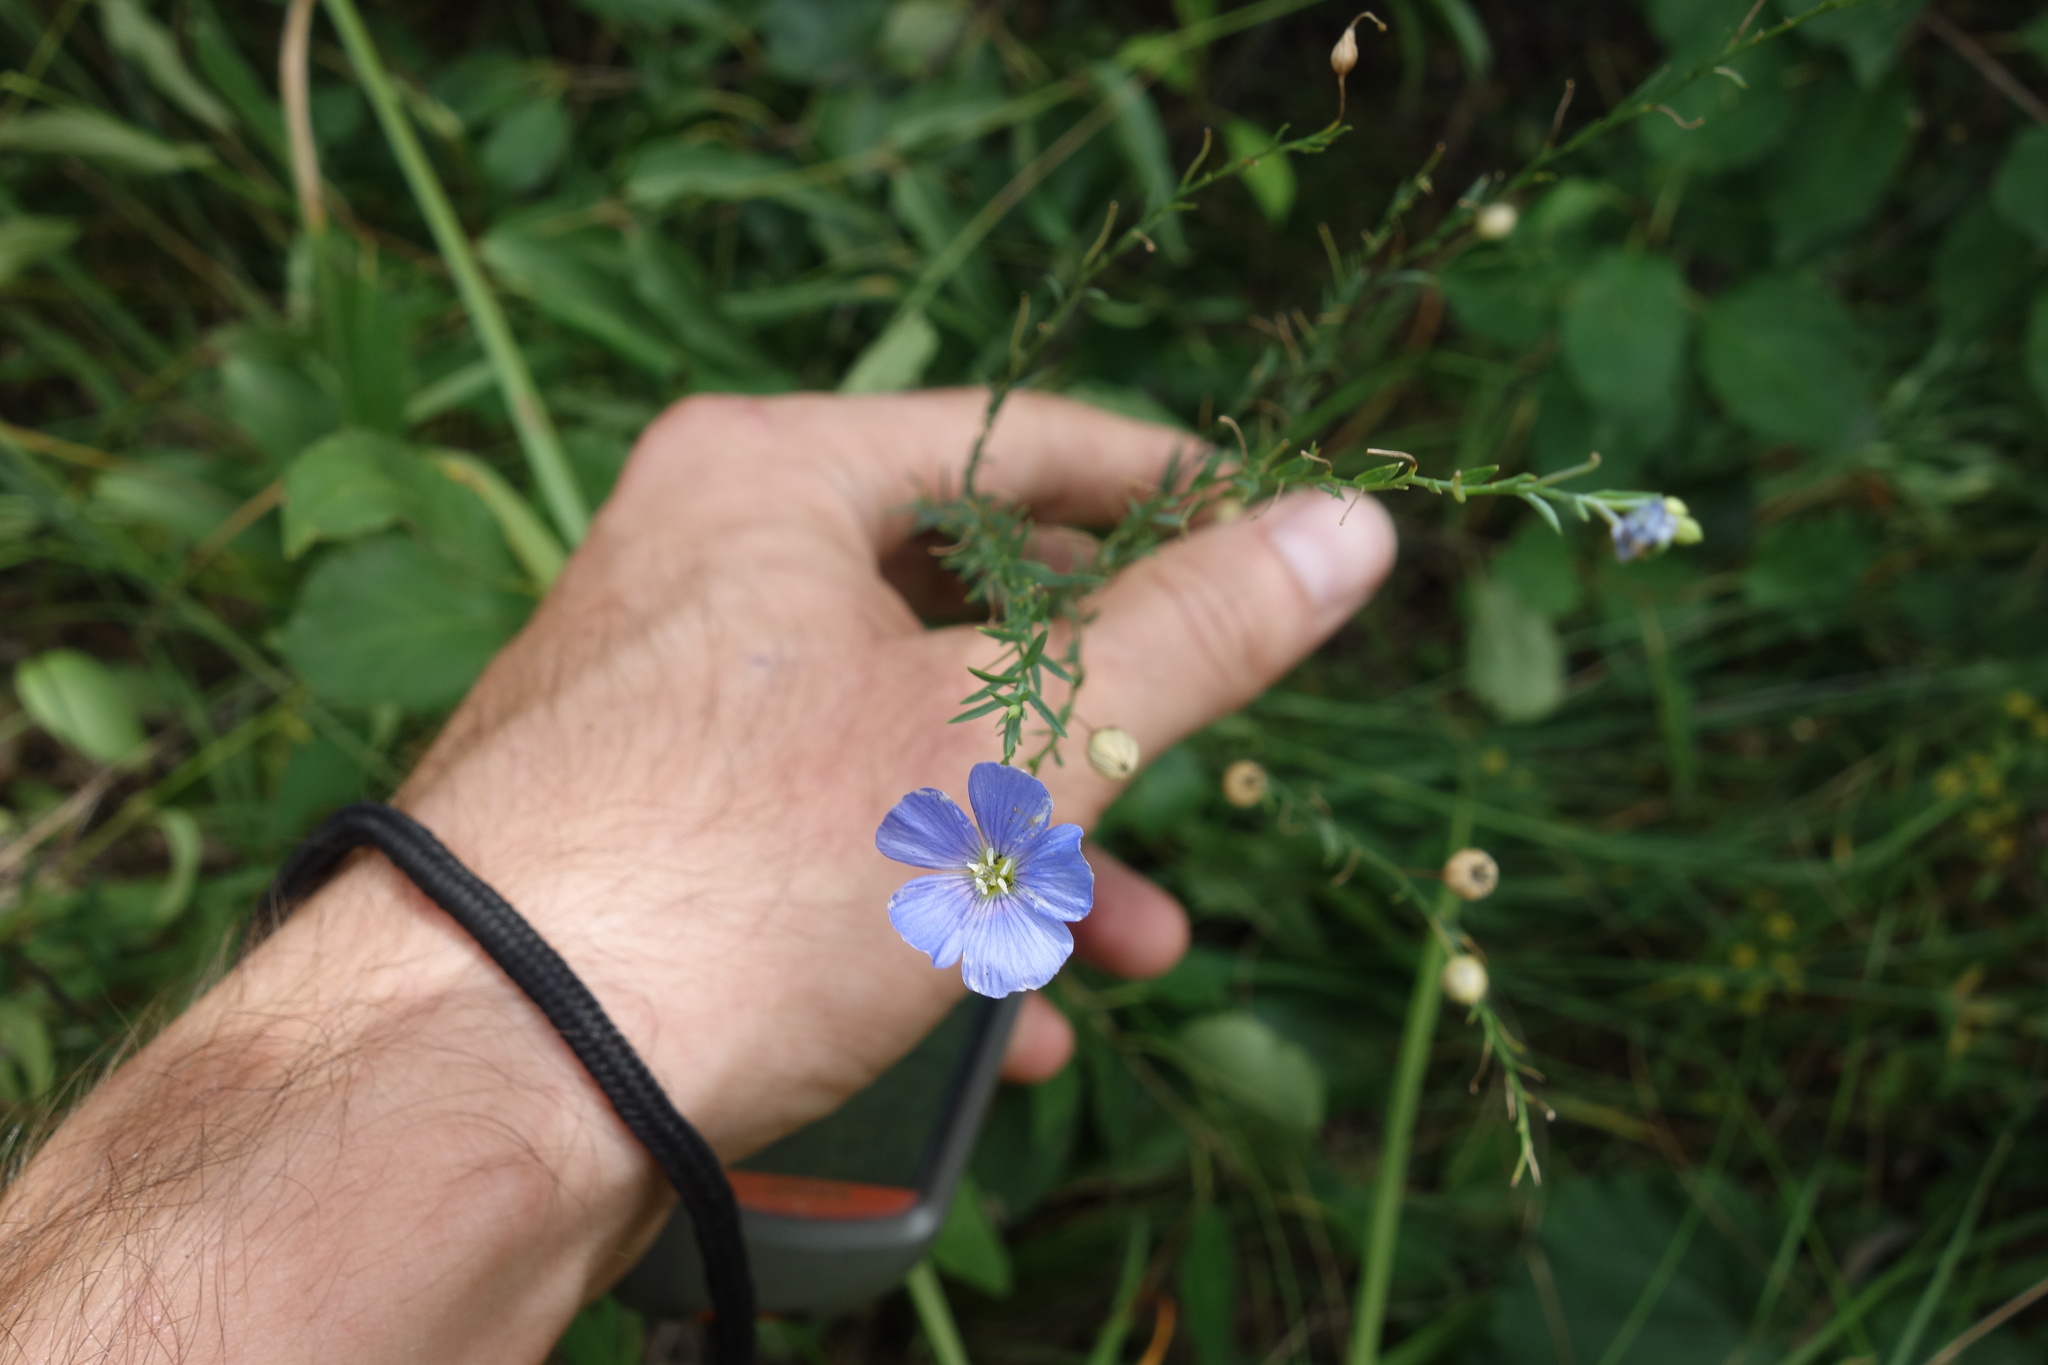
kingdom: Plantae
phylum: Tracheophyta
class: Magnoliopsida
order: Malpighiales
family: Linaceae
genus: Linum
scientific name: Linum perenne
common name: Blue flax
